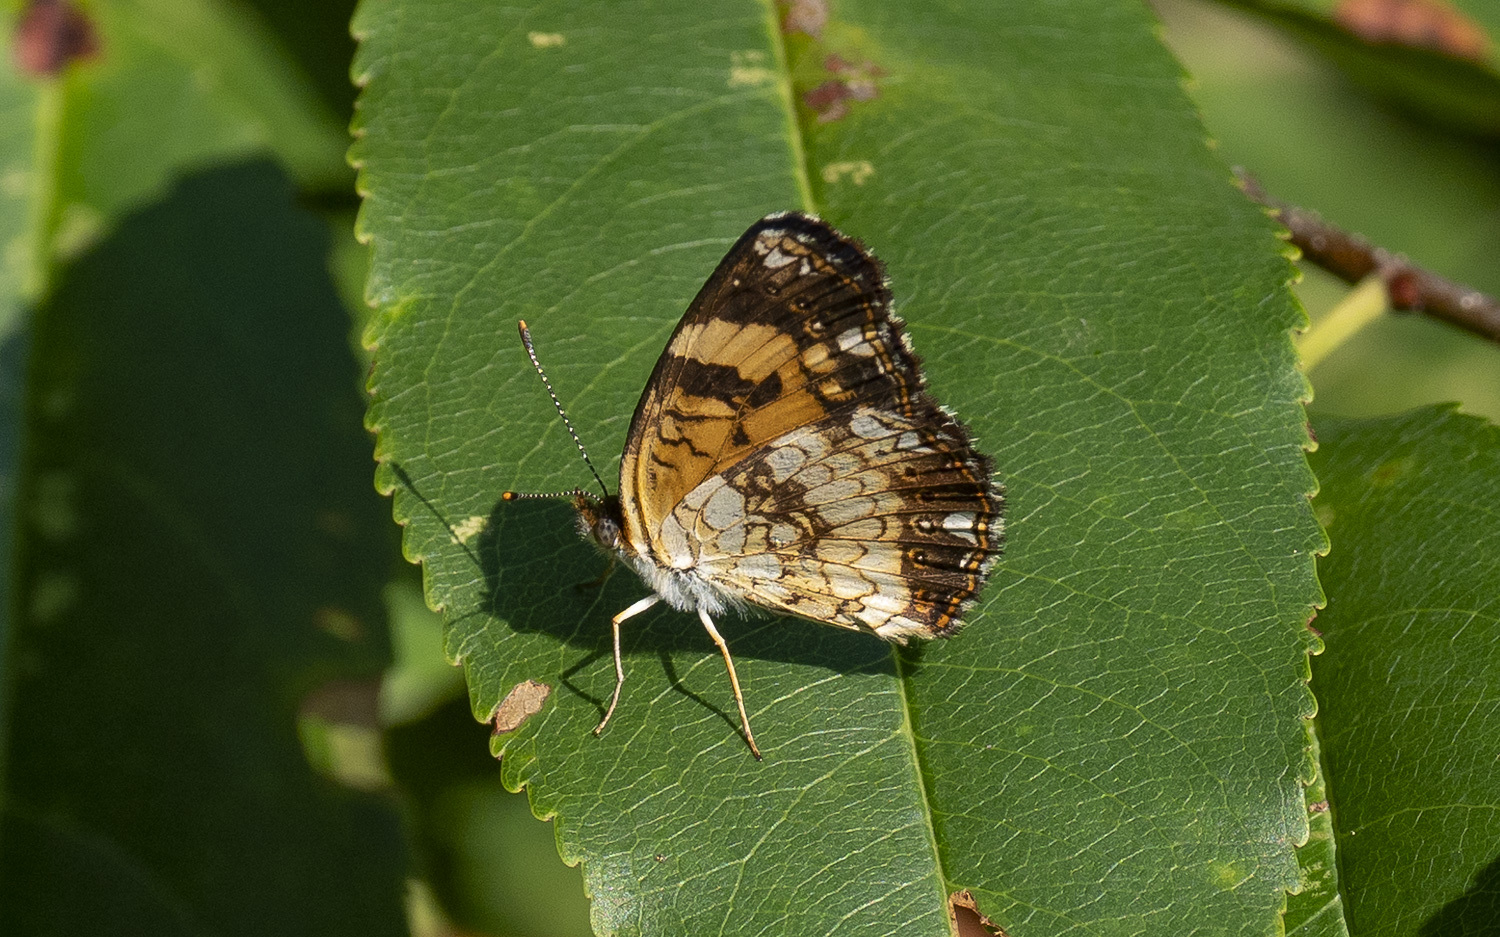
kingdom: Animalia
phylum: Arthropoda
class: Insecta
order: Lepidoptera
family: Nymphalidae
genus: Chlosyne
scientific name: Chlosyne nycteis
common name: Silvery checkerspot
